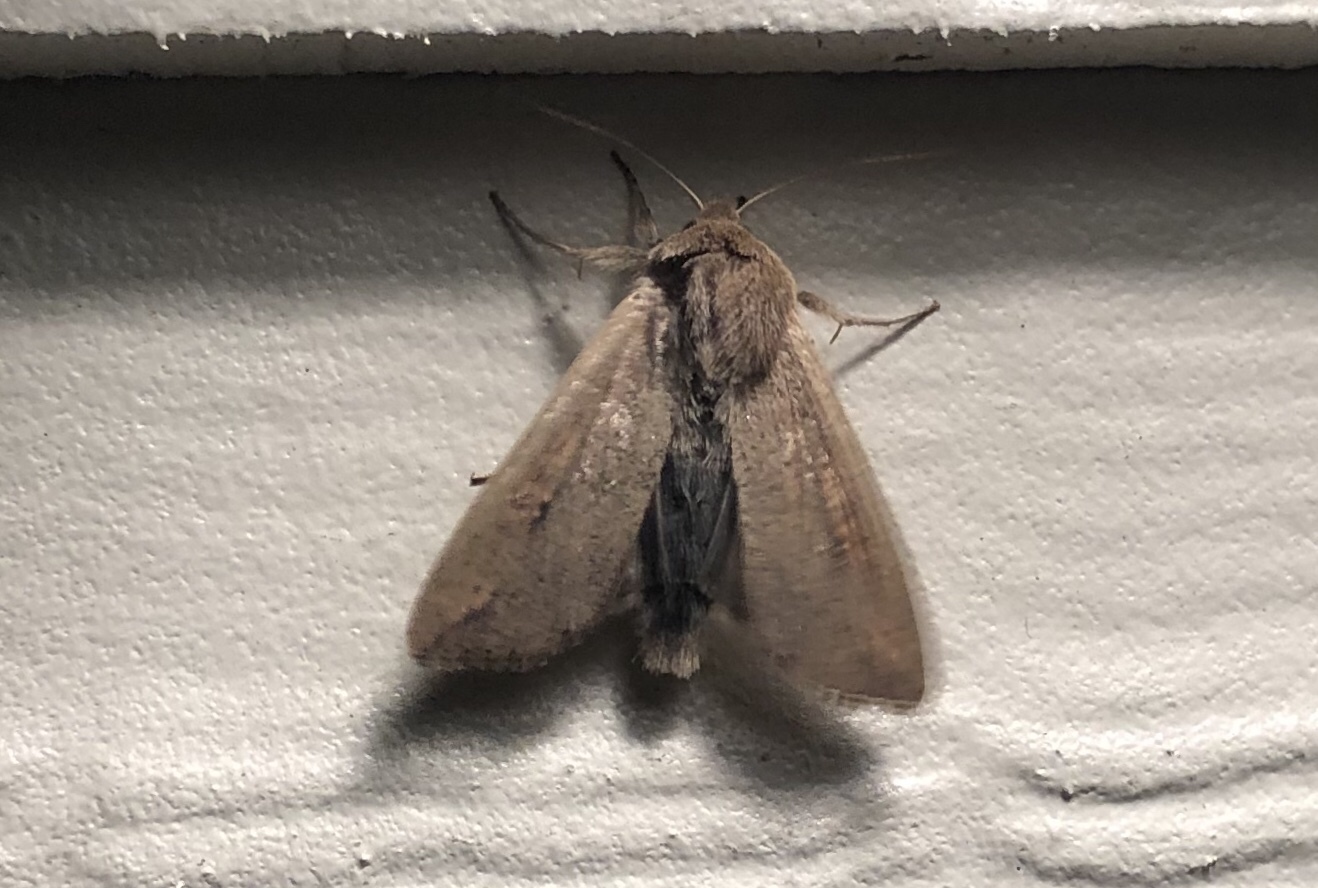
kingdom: Animalia
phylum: Arthropoda
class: Insecta
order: Lepidoptera
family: Noctuidae
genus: Mythimna
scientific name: Mythimna unipuncta
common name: White-speck
